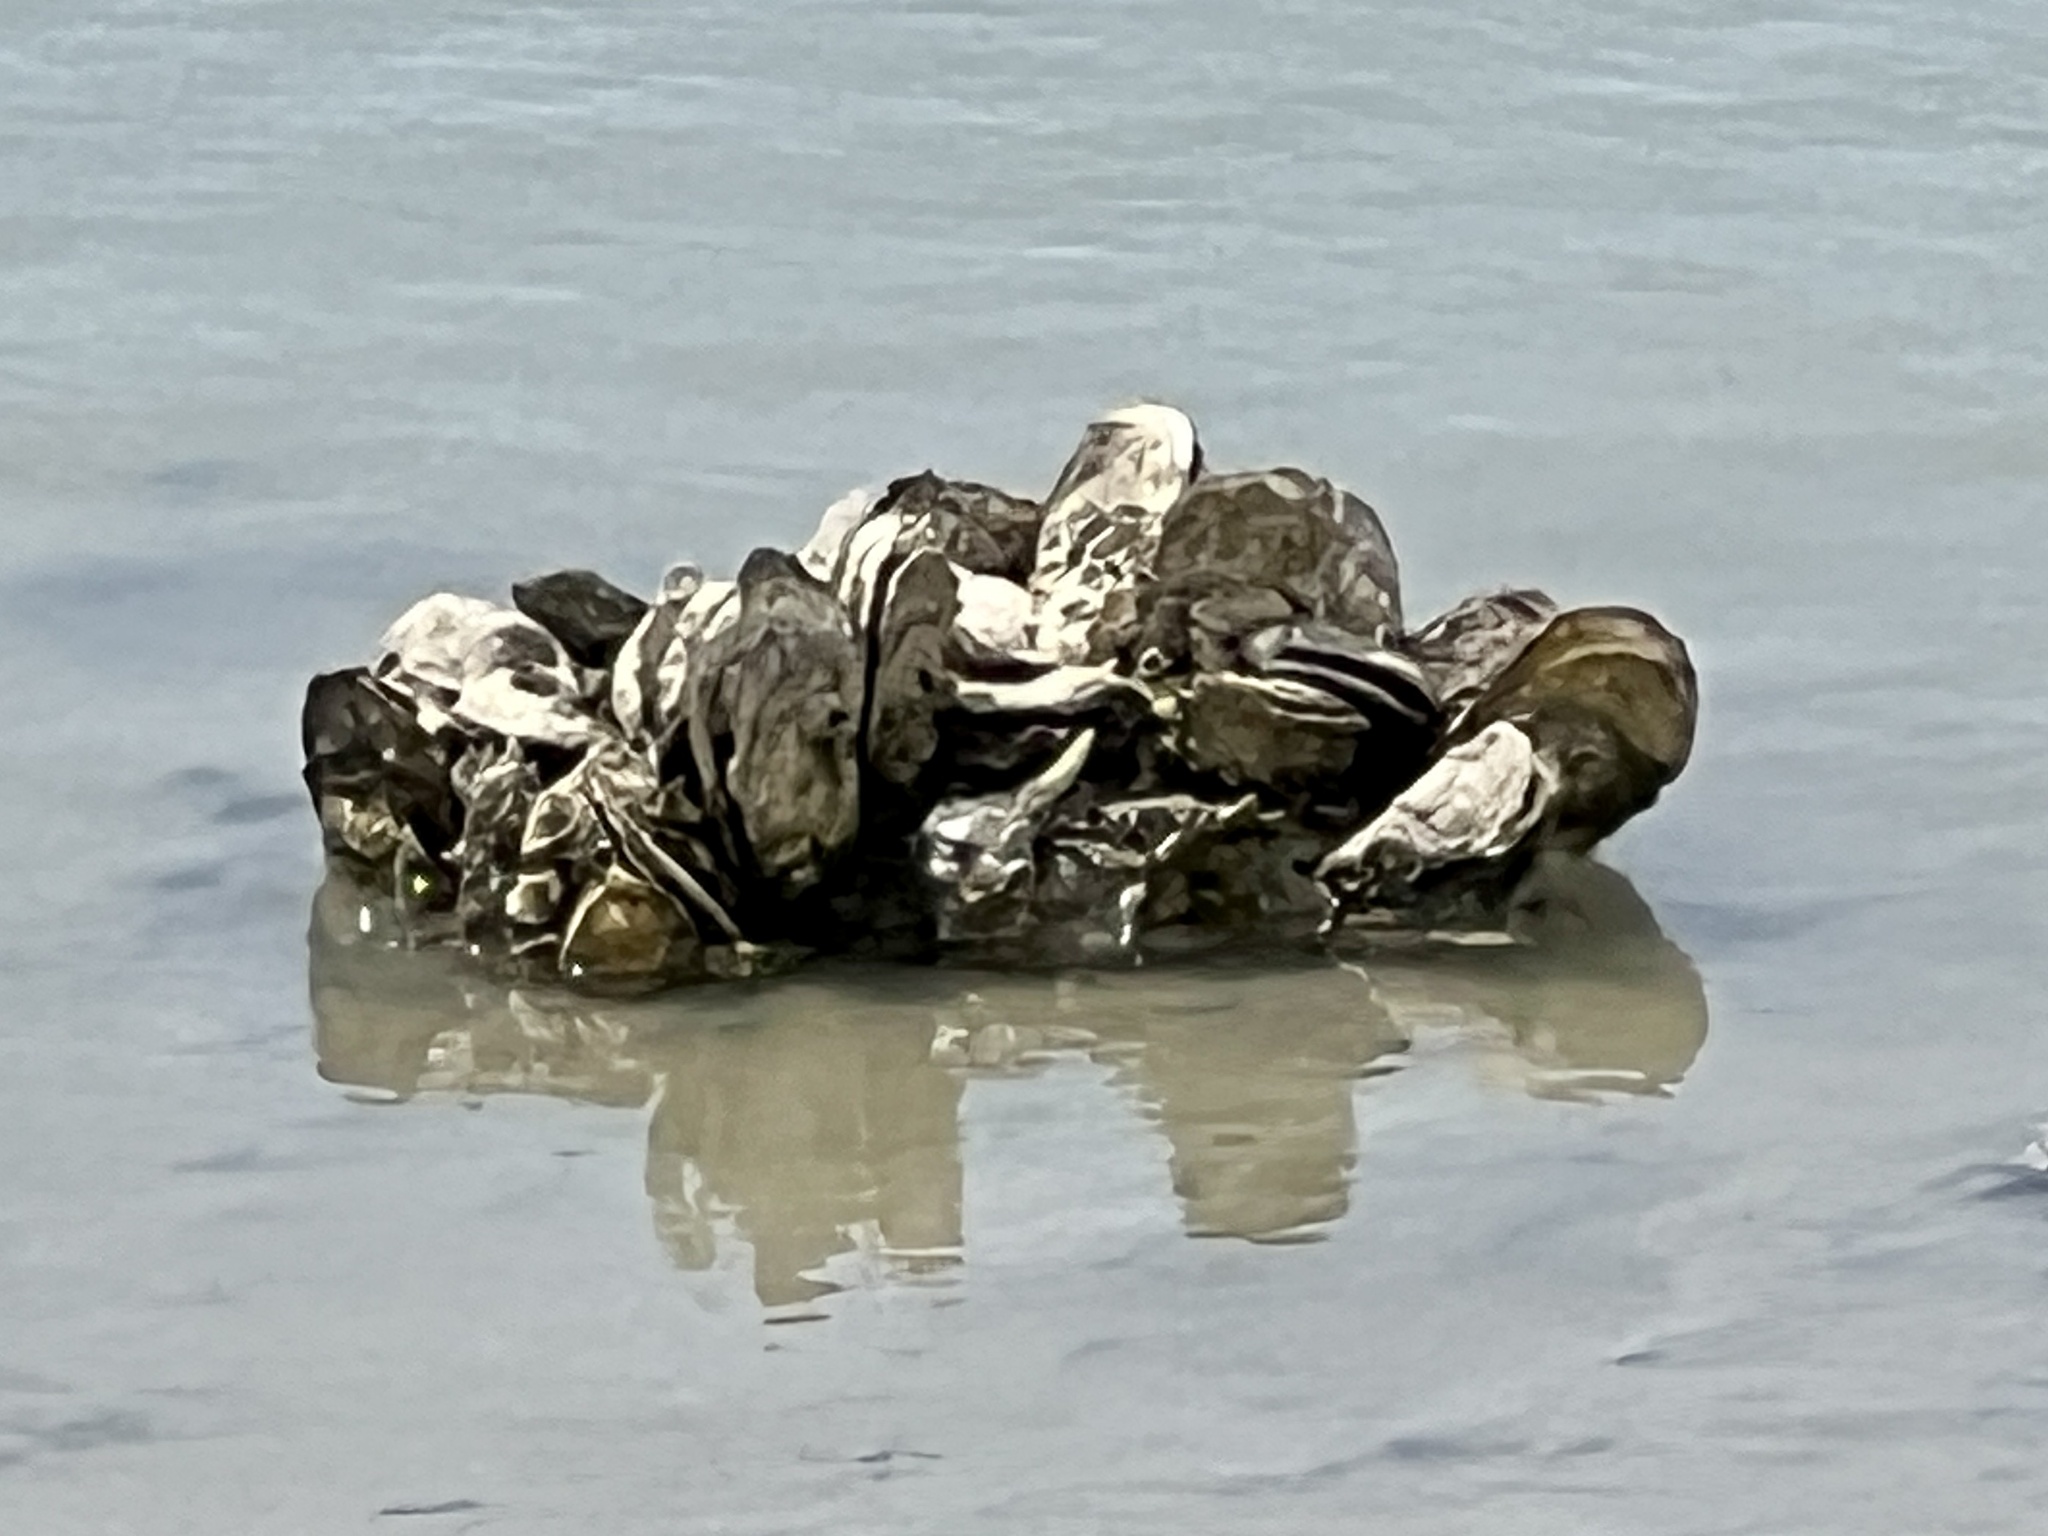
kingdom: Animalia
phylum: Mollusca
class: Bivalvia
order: Ostreida
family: Ostreidae
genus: Crassostrea
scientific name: Crassostrea virginica
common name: American oyster
